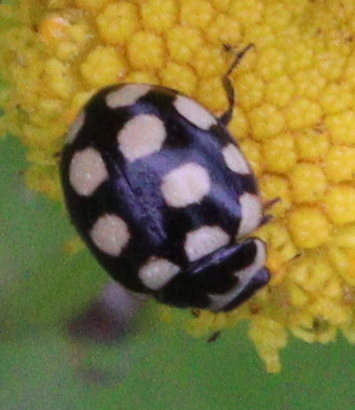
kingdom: Animalia
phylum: Arthropoda
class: Insecta
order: Coleoptera
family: Coccinellidae
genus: Coccinula
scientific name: Coccinula quatuordecimpustulata
